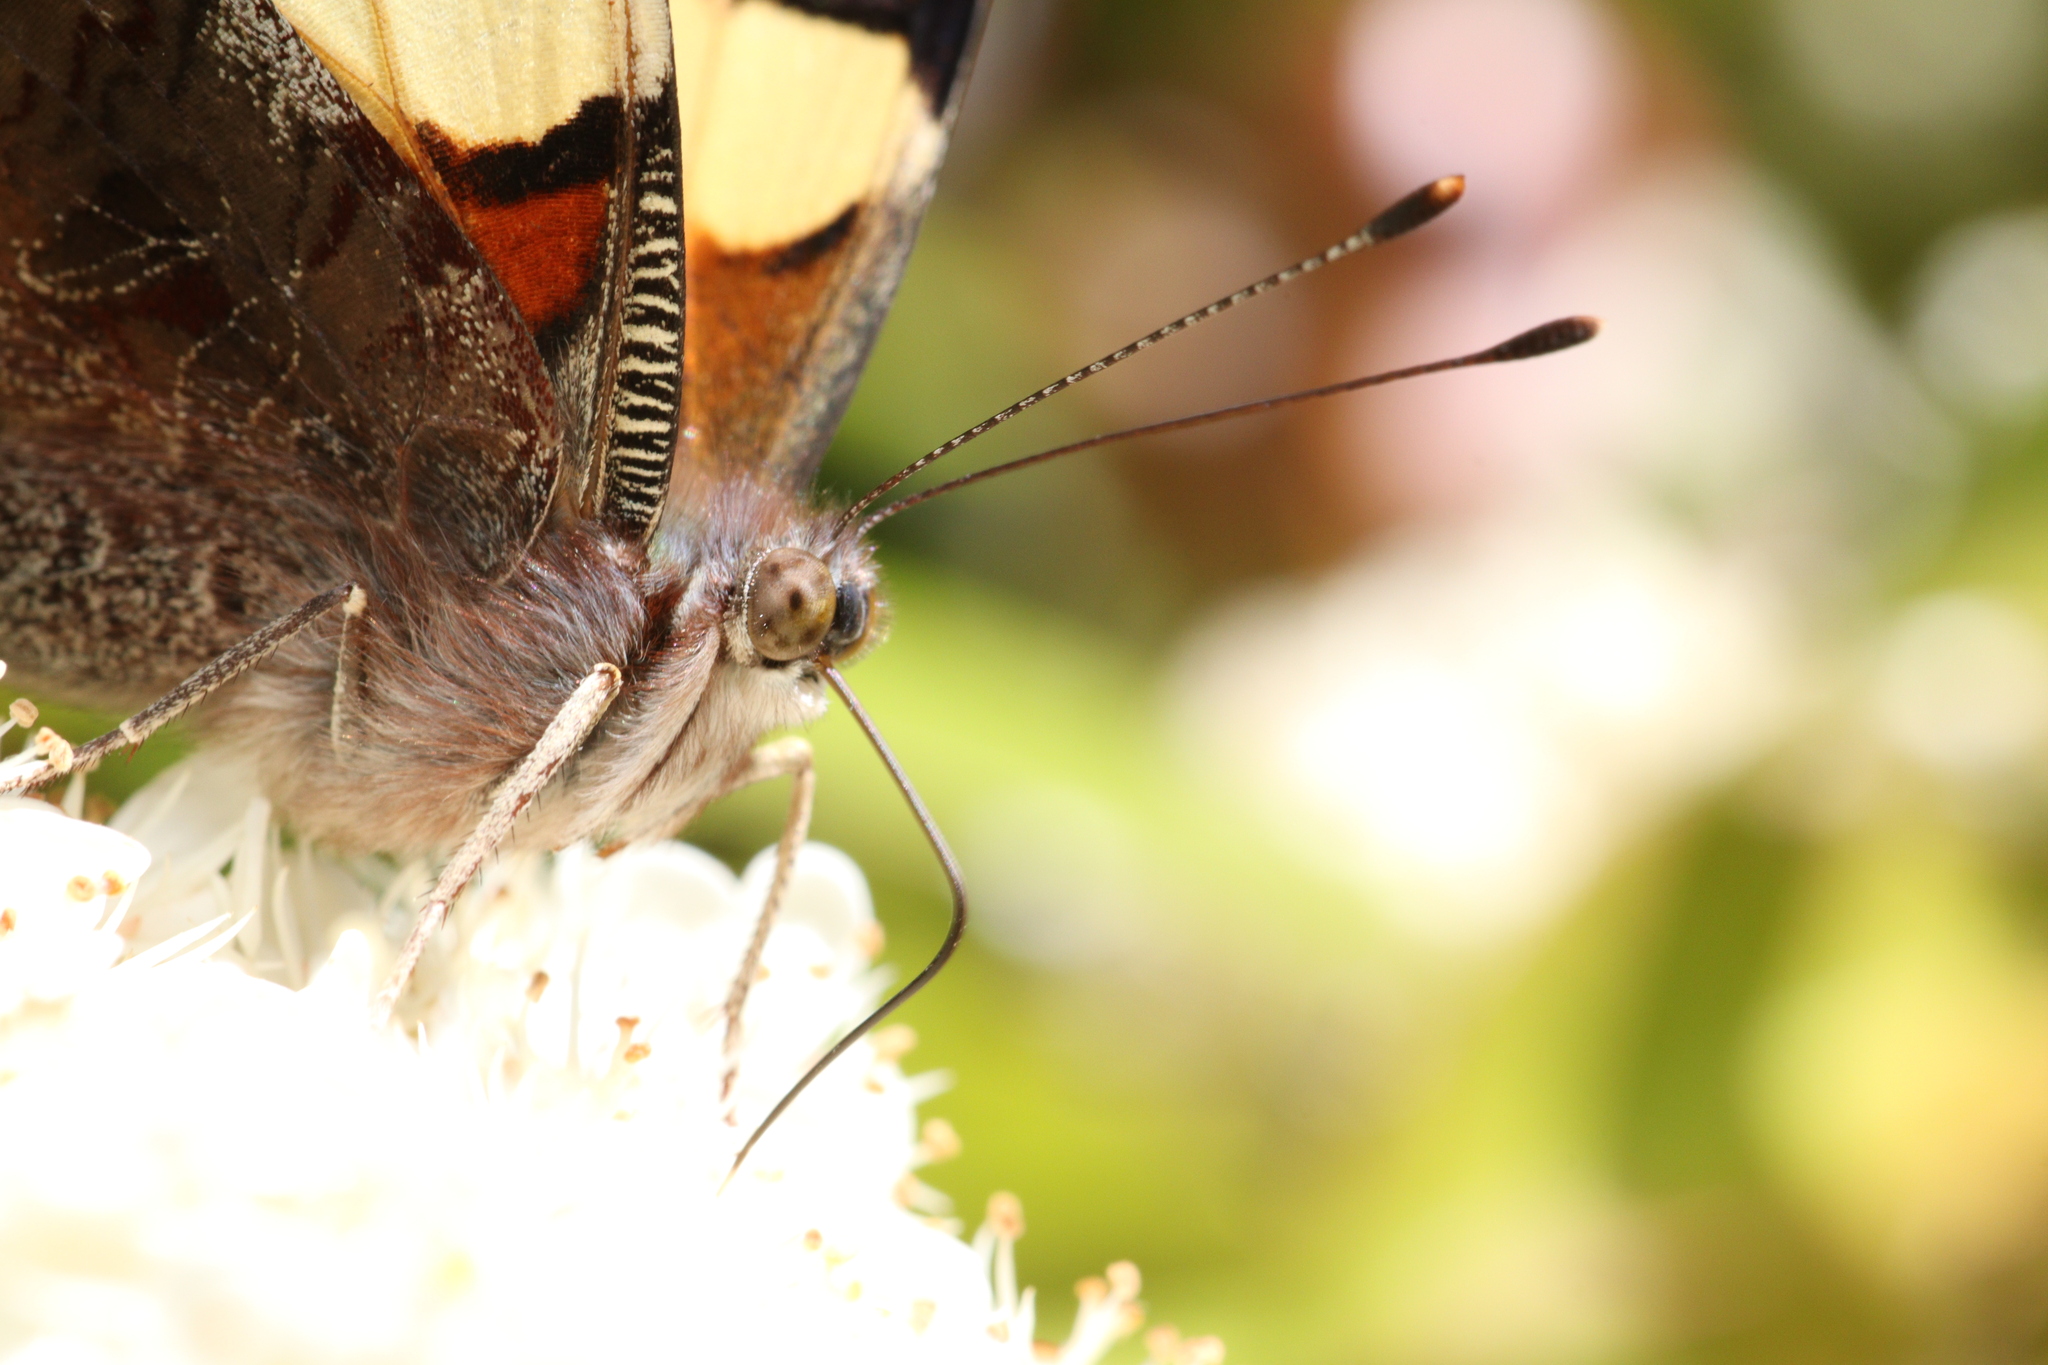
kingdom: Animalia
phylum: Arthropoda
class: Insecta
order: Lepidoptera
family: Nymphalidae
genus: Vanessa
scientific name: Vanessa itea
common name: Yellow admiral
